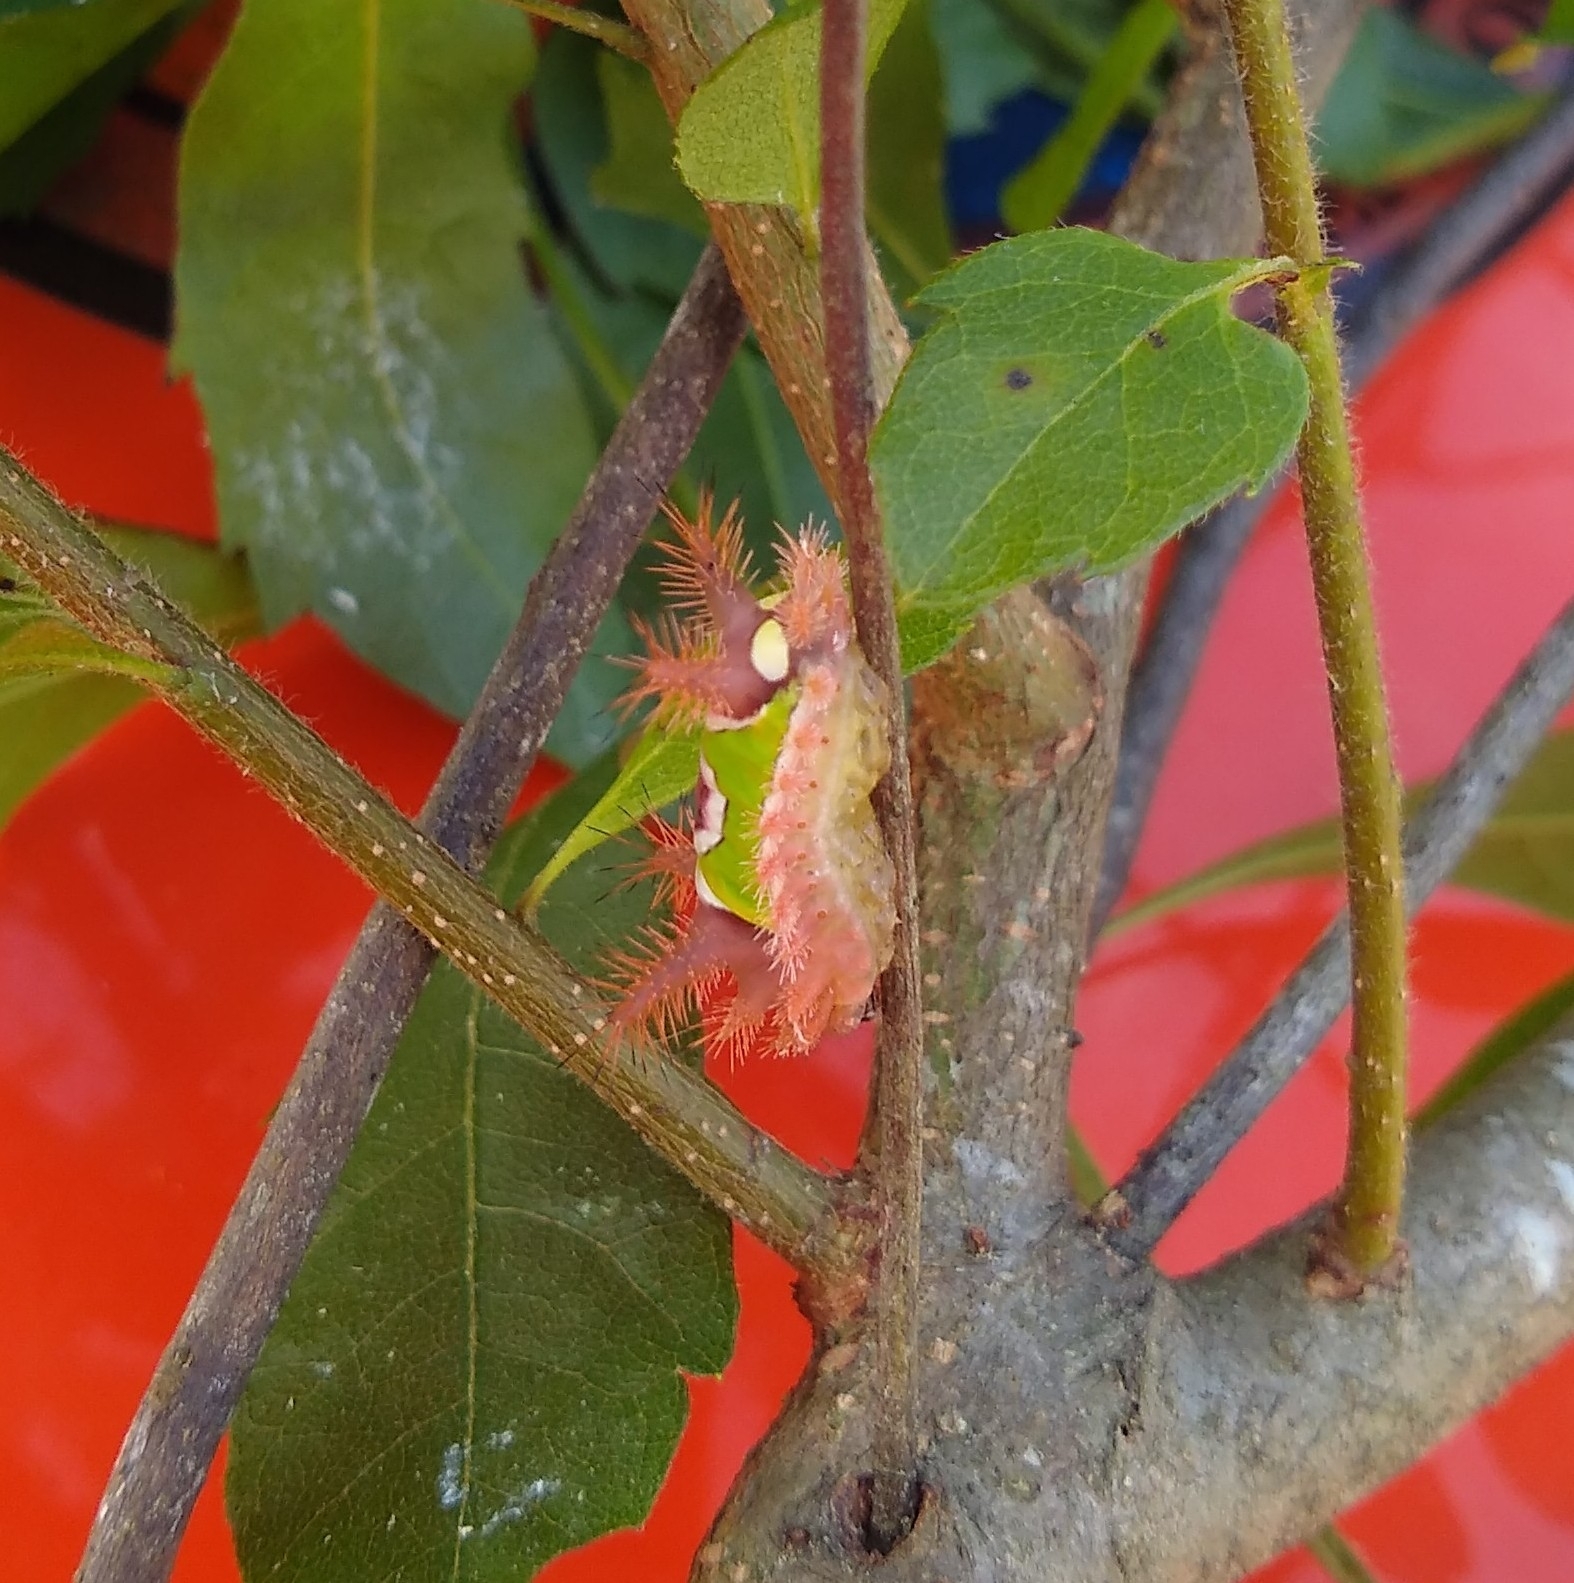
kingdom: Animalia
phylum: Arthropoda
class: Insecta
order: Lepidoptera
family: Limacodidae
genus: Acharia
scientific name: Acharia stimulea
